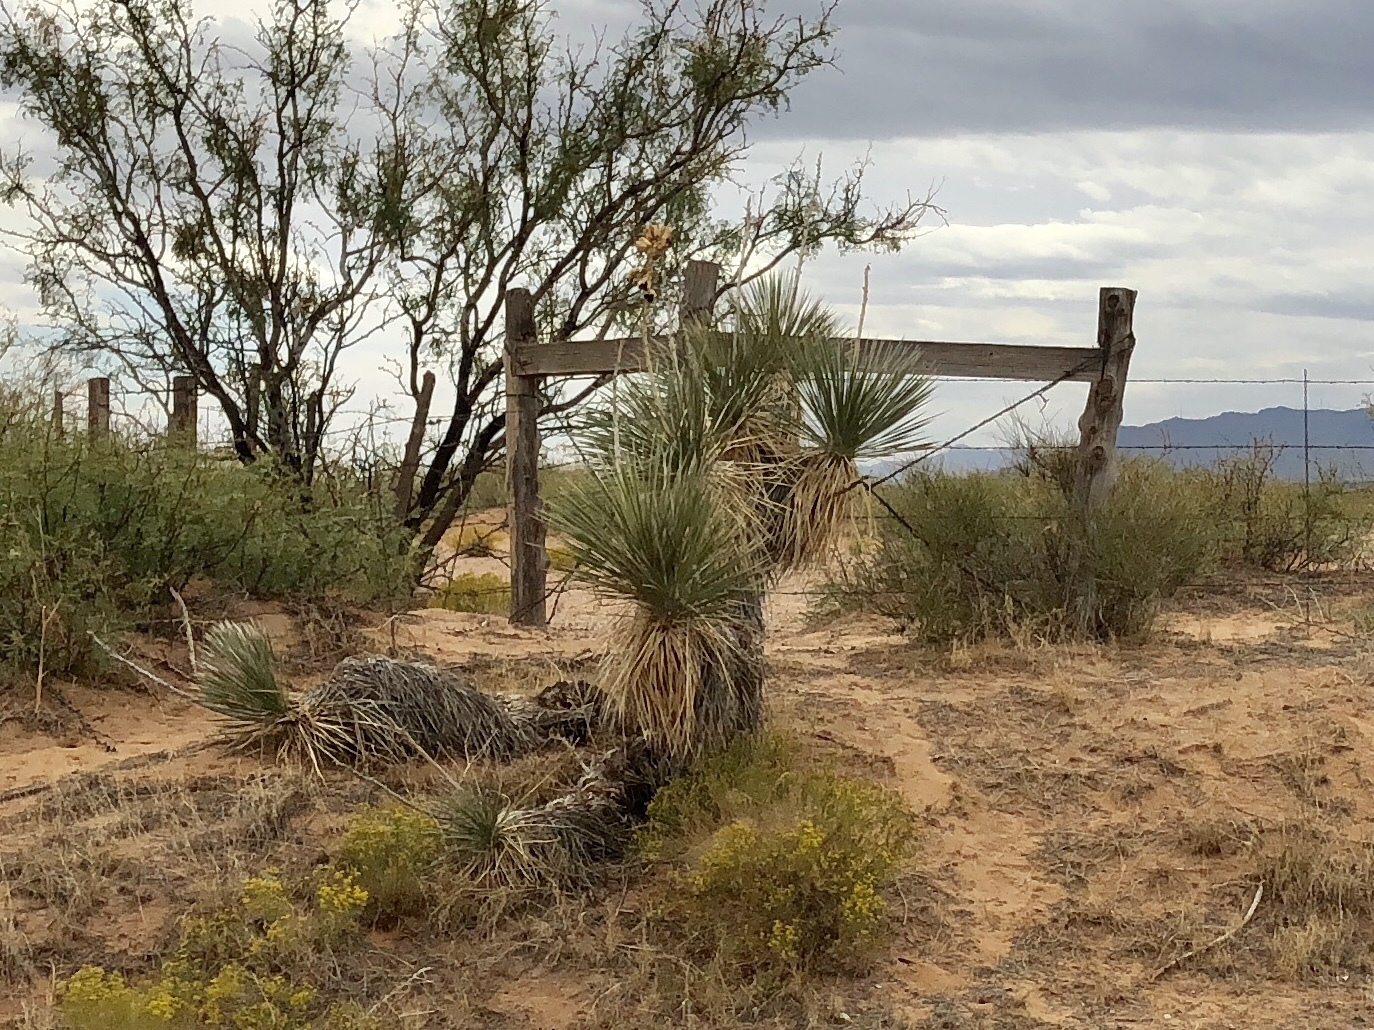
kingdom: Plantae
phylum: Tracheophyta
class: Liliopsida
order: Asparagales
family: Asparagaceae
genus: Yucca
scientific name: Yucca elata
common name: Palmella
